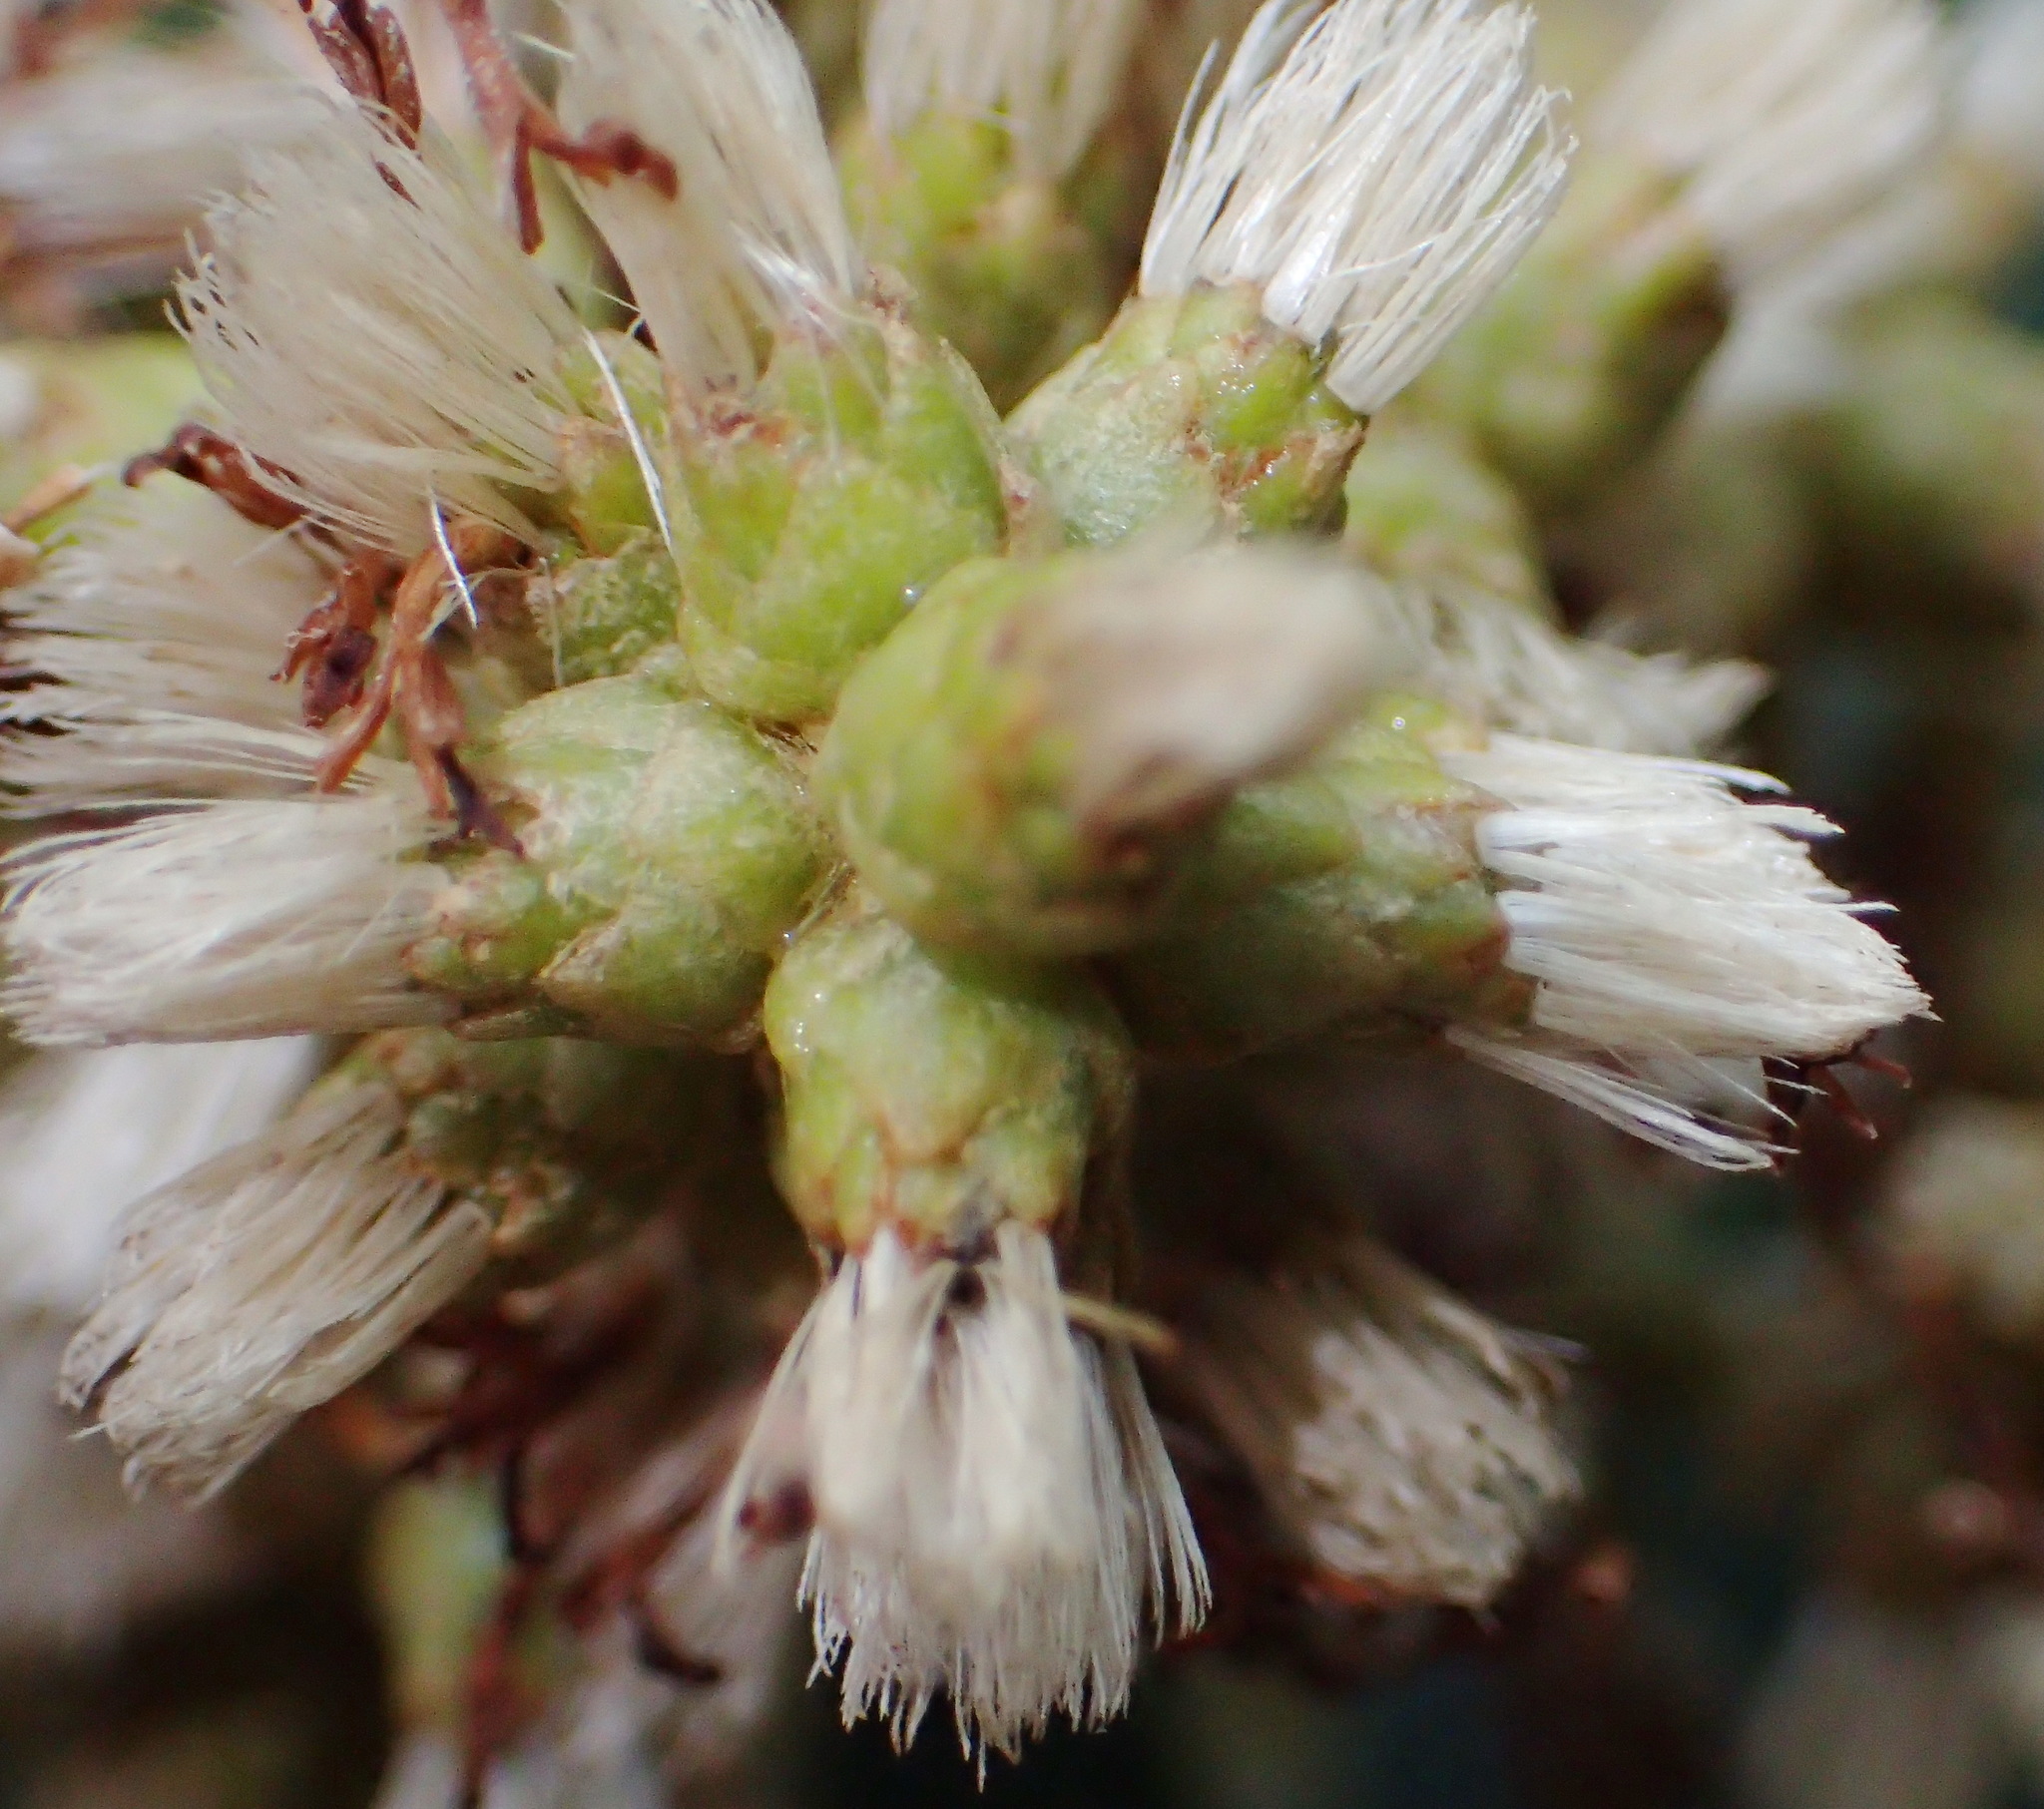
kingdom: Plantae
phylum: Tracheophyta
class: Magnoliopsida
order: Asterales
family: Asteraceae
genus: Brachylaena
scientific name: Brachylaena neriifolia
